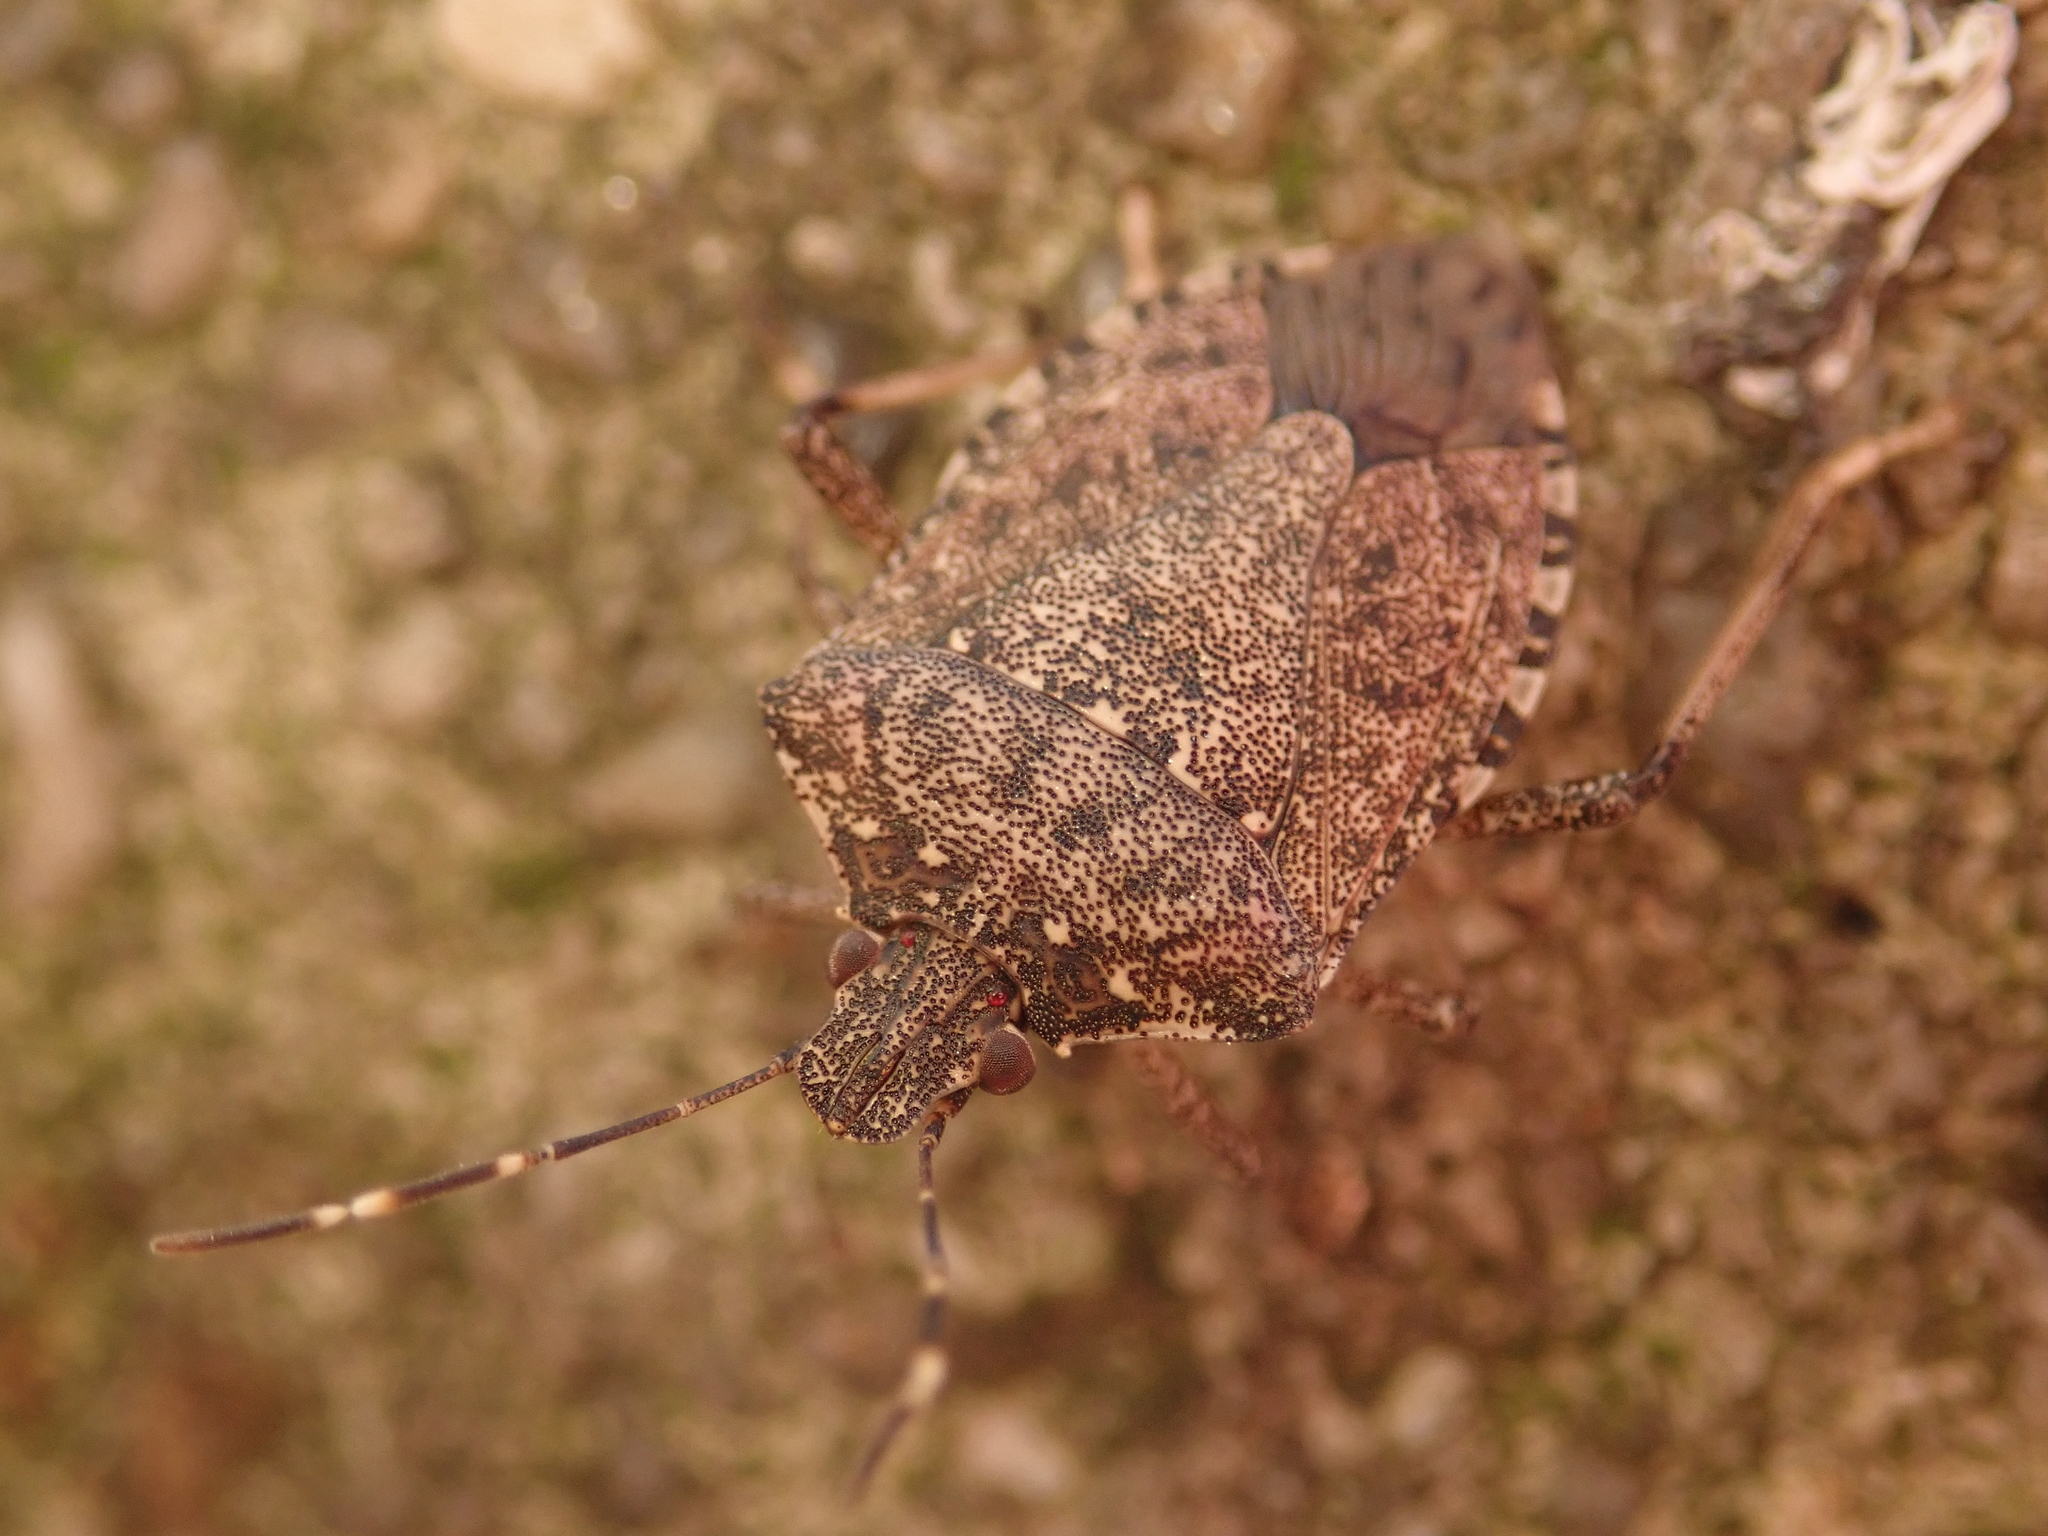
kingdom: Animalia
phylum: Arthropoda
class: Insecta
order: Hemiptera
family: Pentatomidae
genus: Halyomorpha
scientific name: Halyomorpha halys
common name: Brown marmorated stink bug
